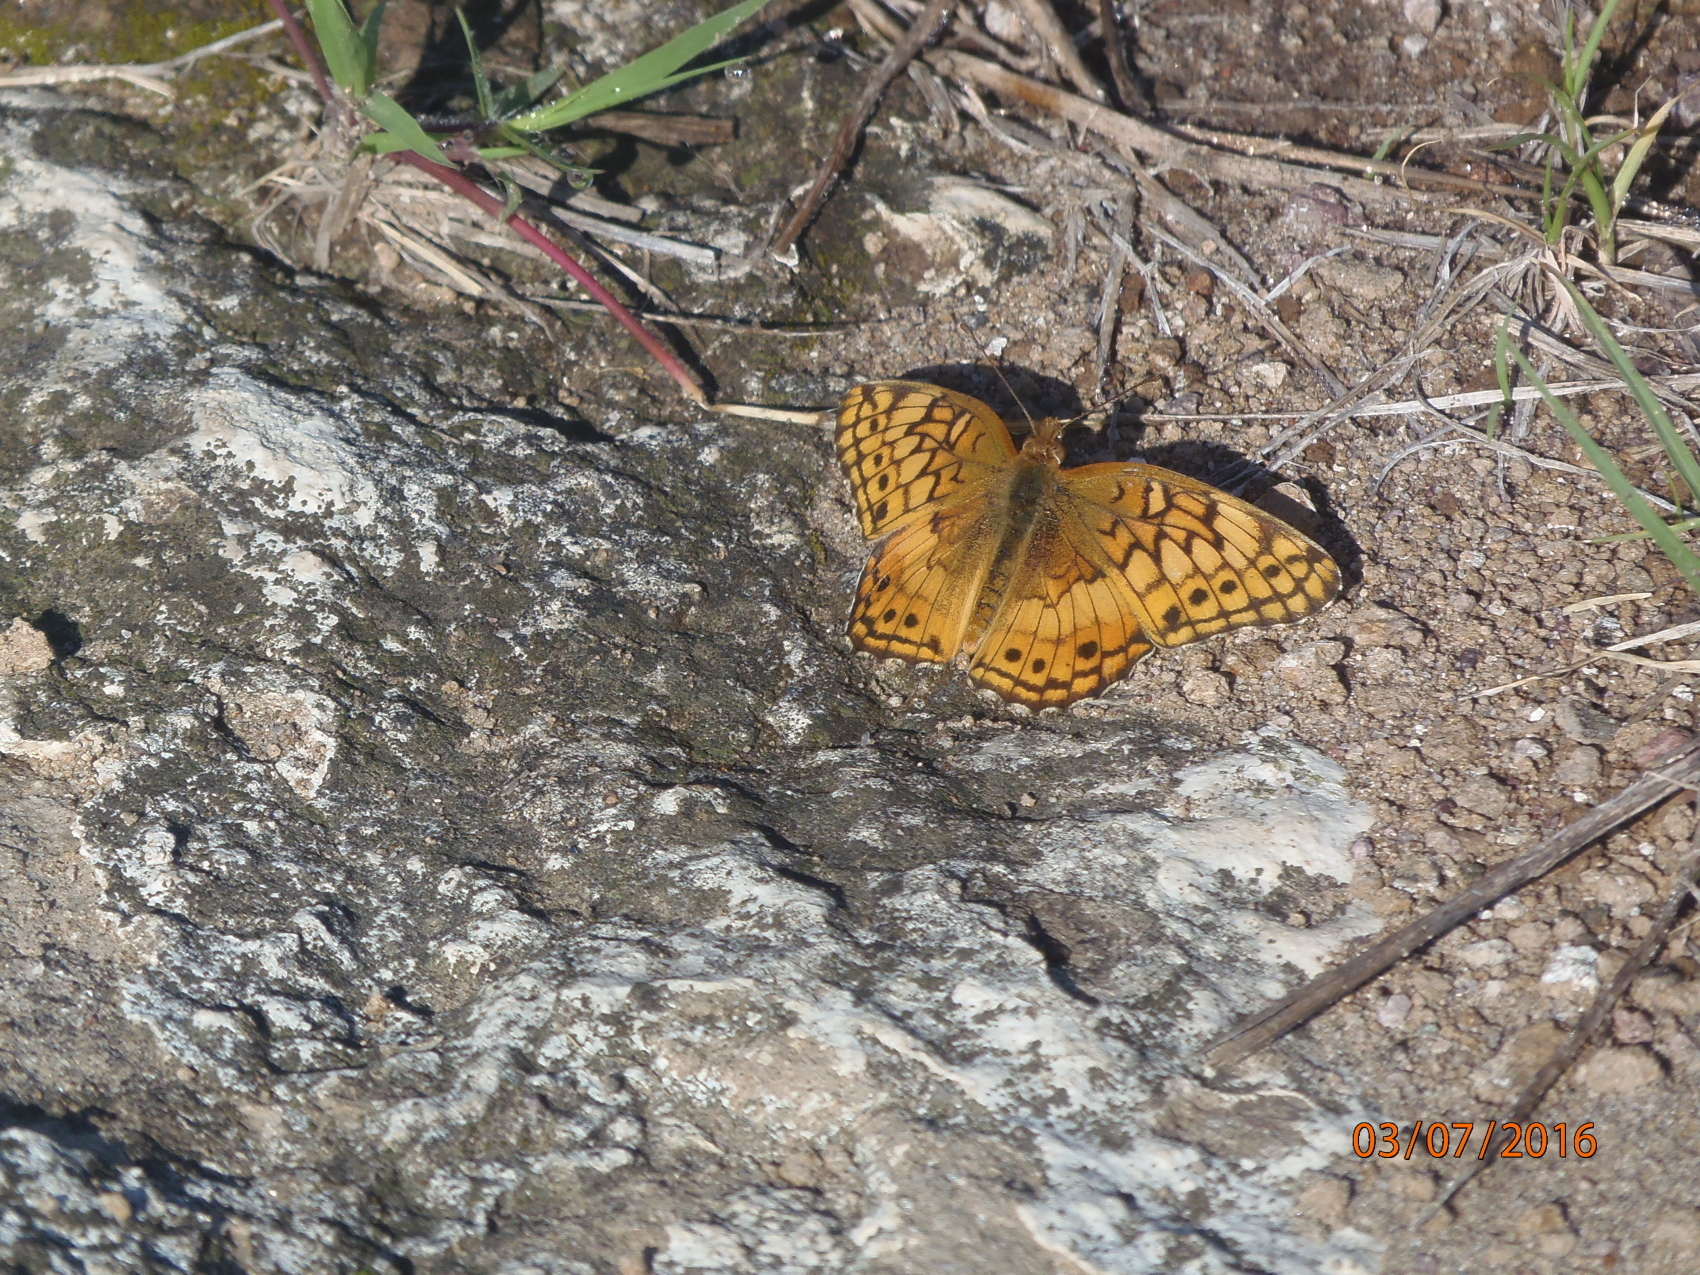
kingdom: Animalia
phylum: Arthropoda
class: Insecta
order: Lepidoptera
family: Nymphalidae
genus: Euptoieta
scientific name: Euptoieta claudia
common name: Variegated fritillary
